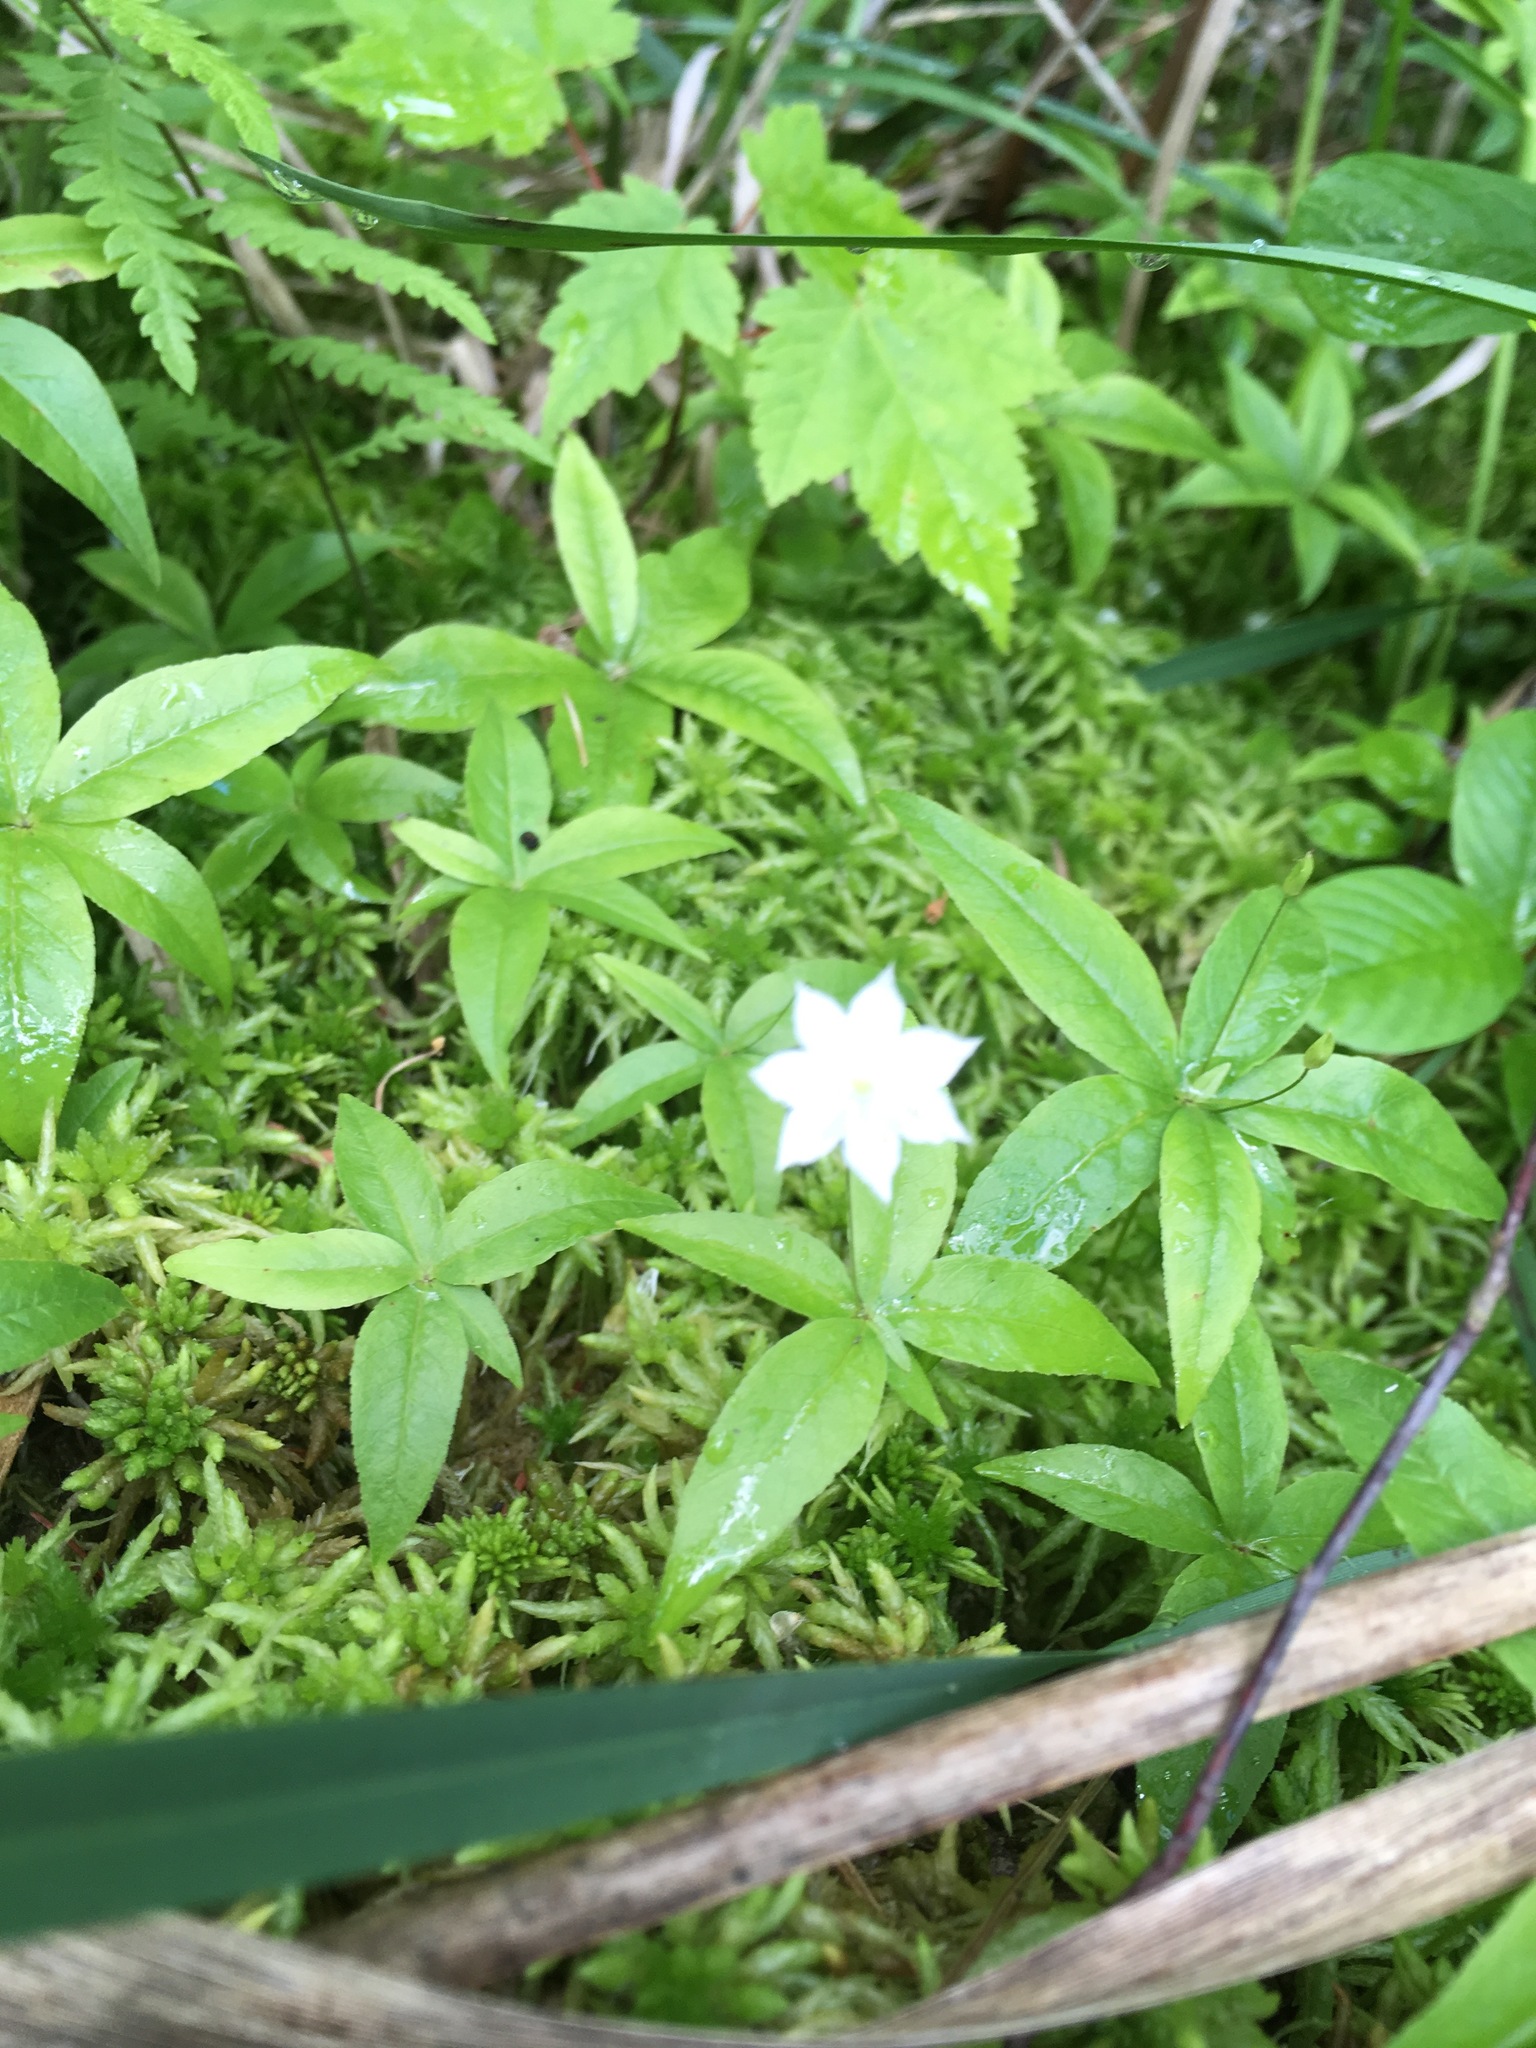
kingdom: Plantae
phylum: Tracheophyta
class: Magnoliopsida
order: Ericales
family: Primulaceae
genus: Lysimachia
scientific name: Lysimachia borealis
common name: American starflower
